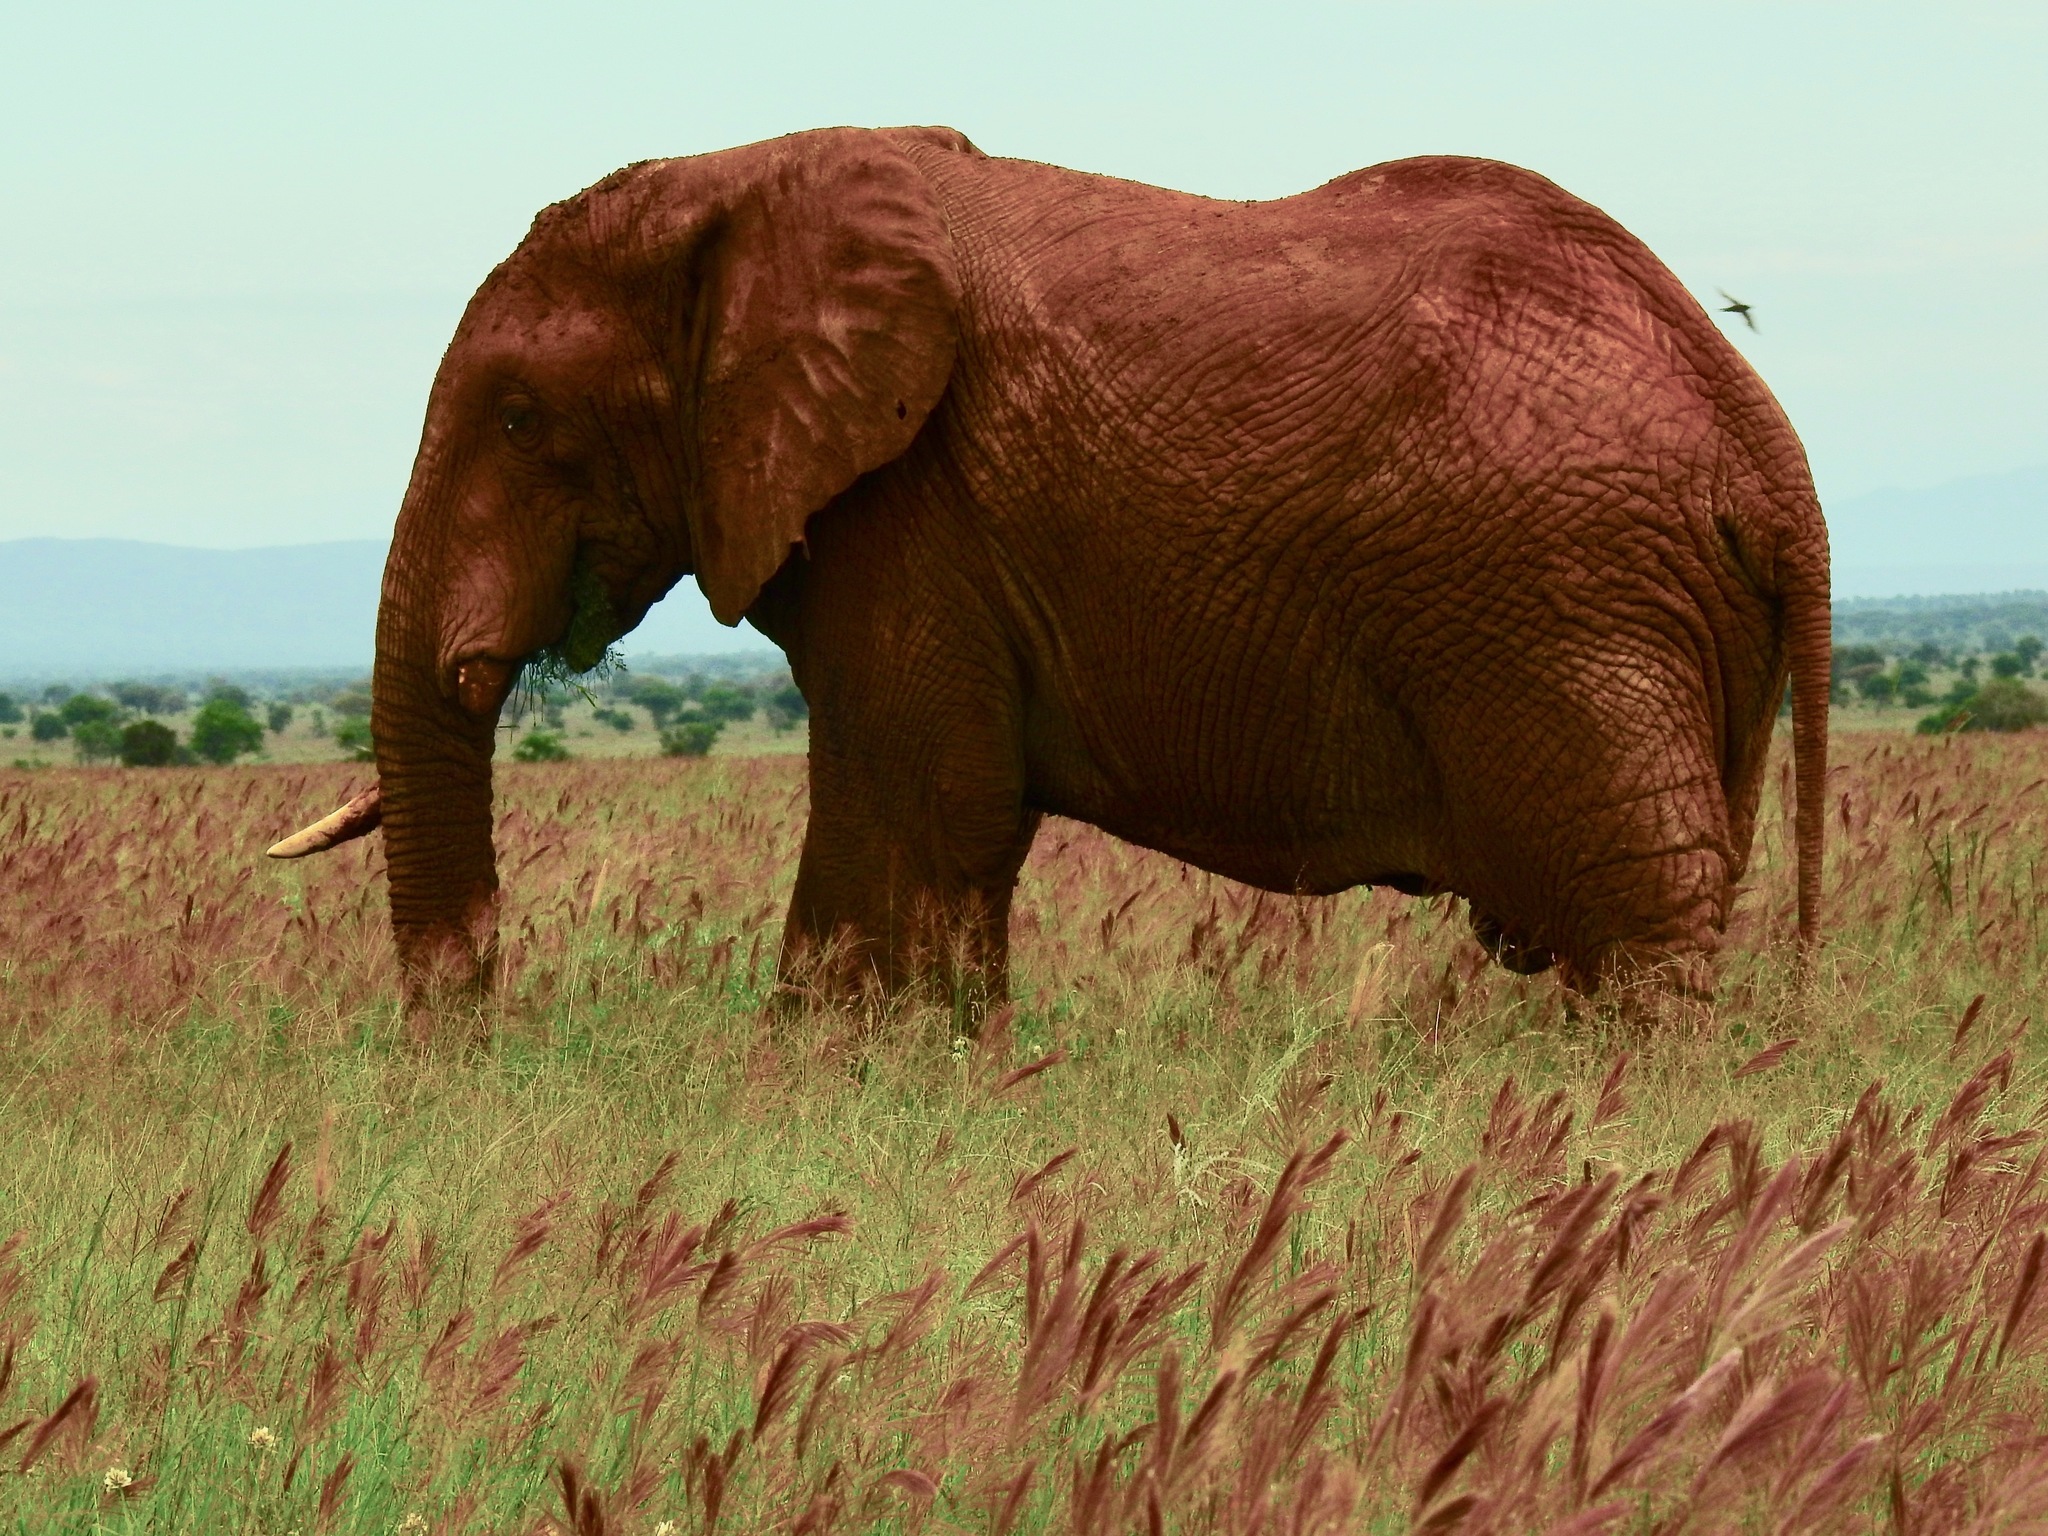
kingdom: Animalia
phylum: Chordata
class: Mammalia
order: Proboscidea
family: Elephantidae
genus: Loxodonta
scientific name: Loxodonta africana
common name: African elephant
